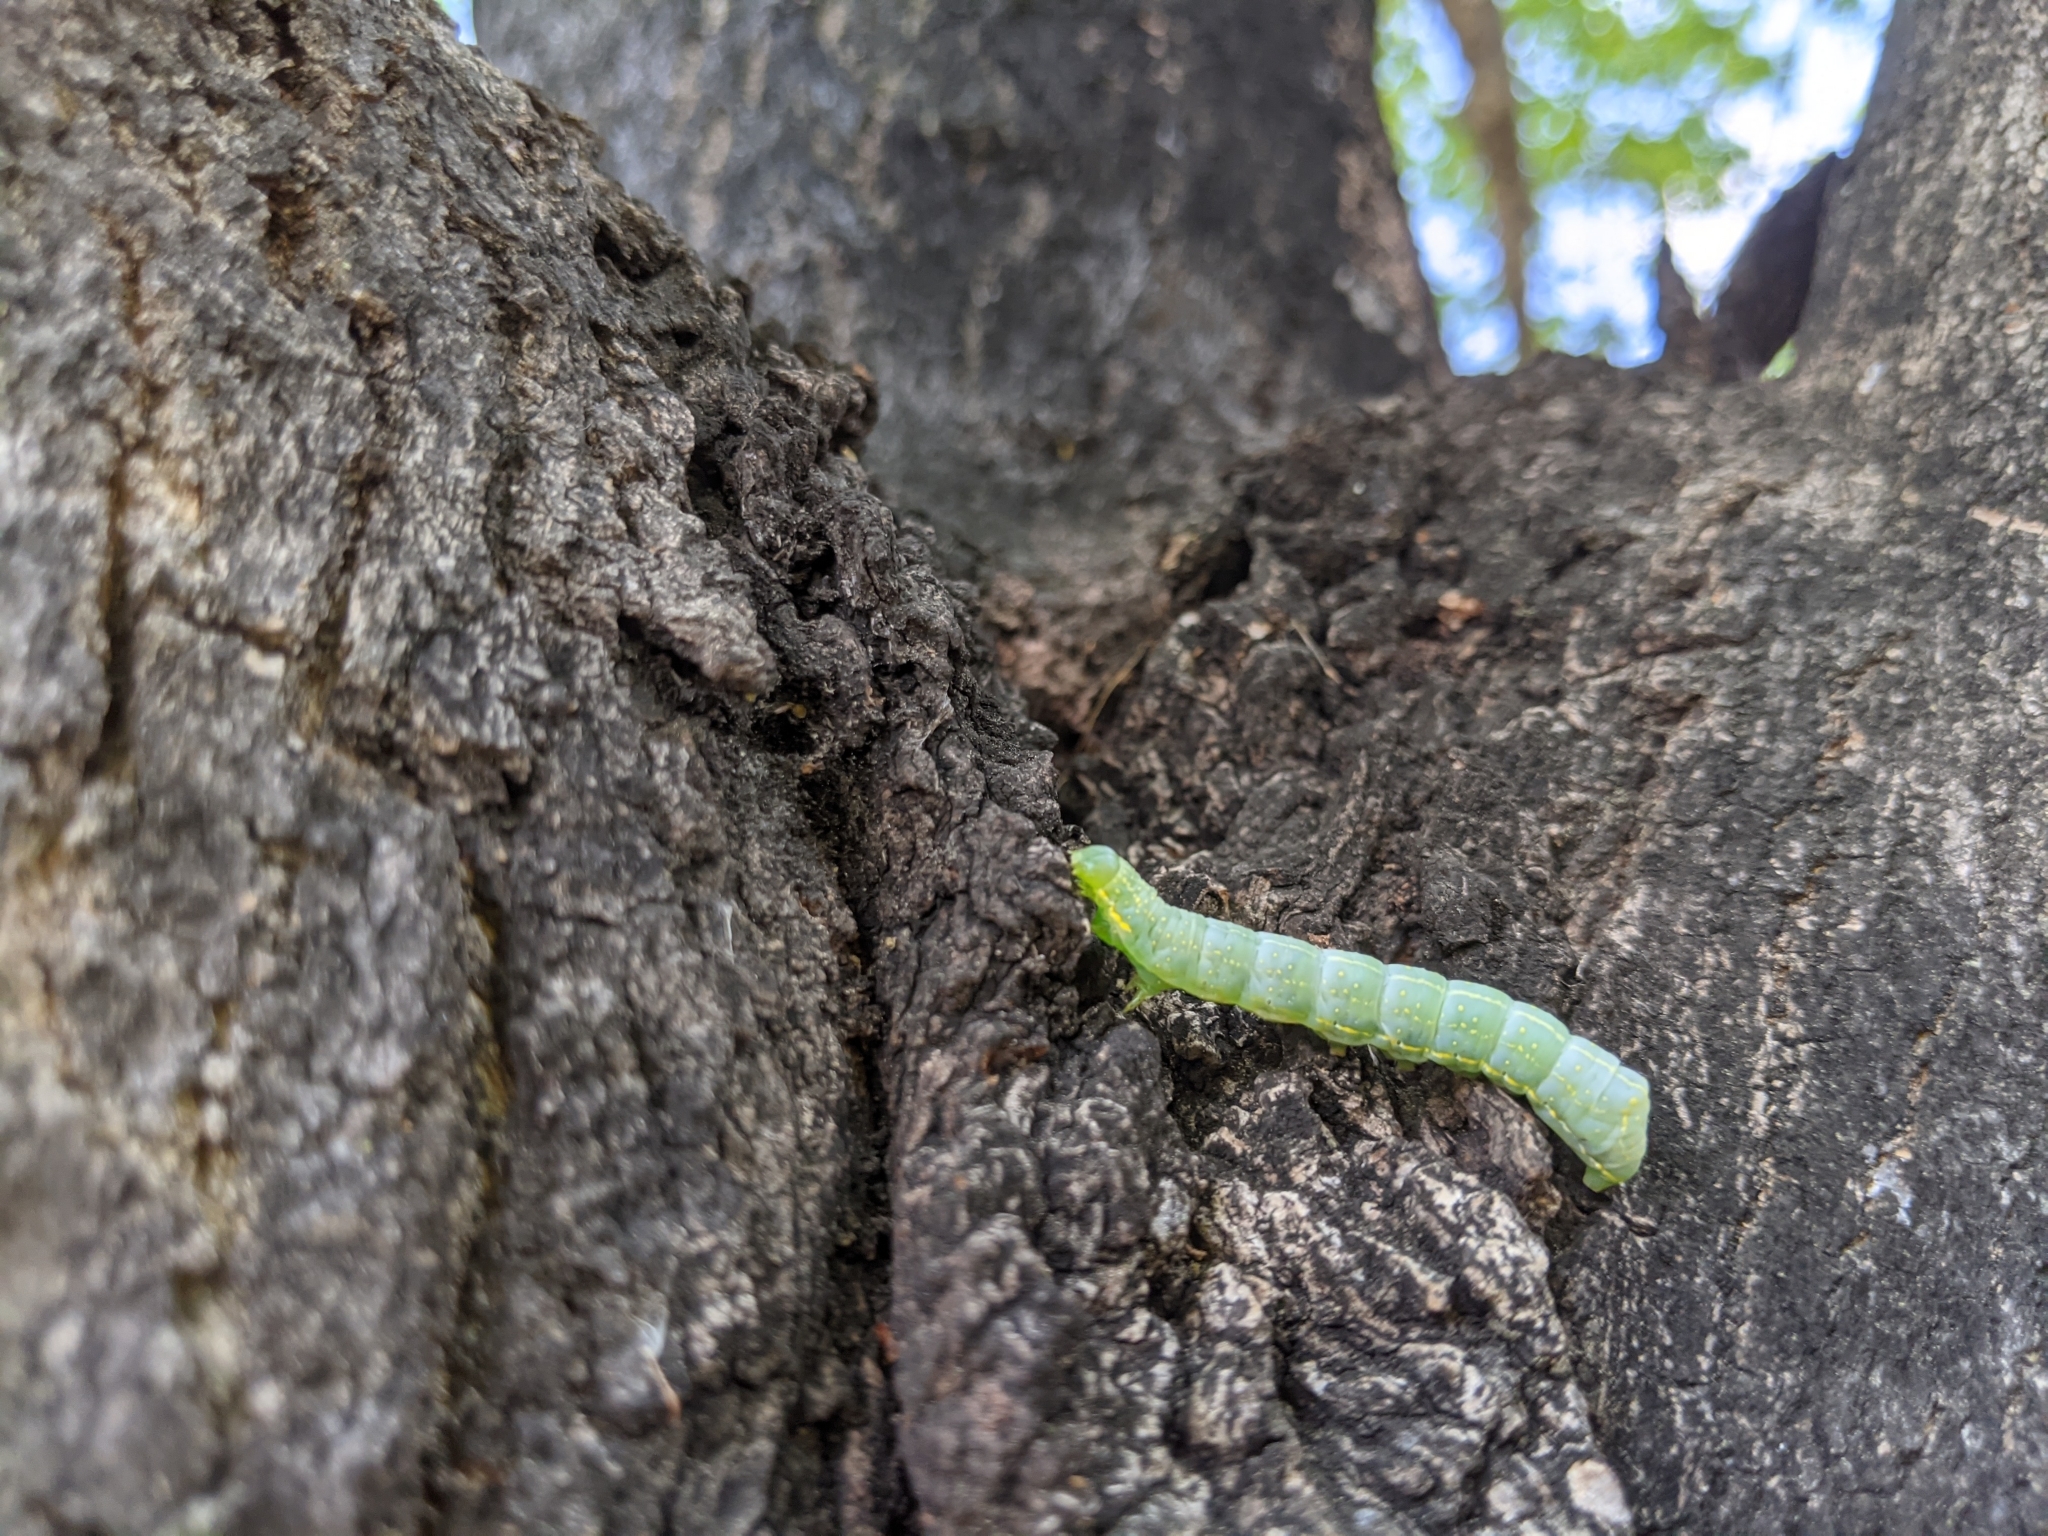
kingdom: Animalia
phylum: Arthropoda
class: Insecta
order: Lepidoptera
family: Noctuidae
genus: Amphipyra
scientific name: Amphipyra pyramidoides
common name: American copper underwing
